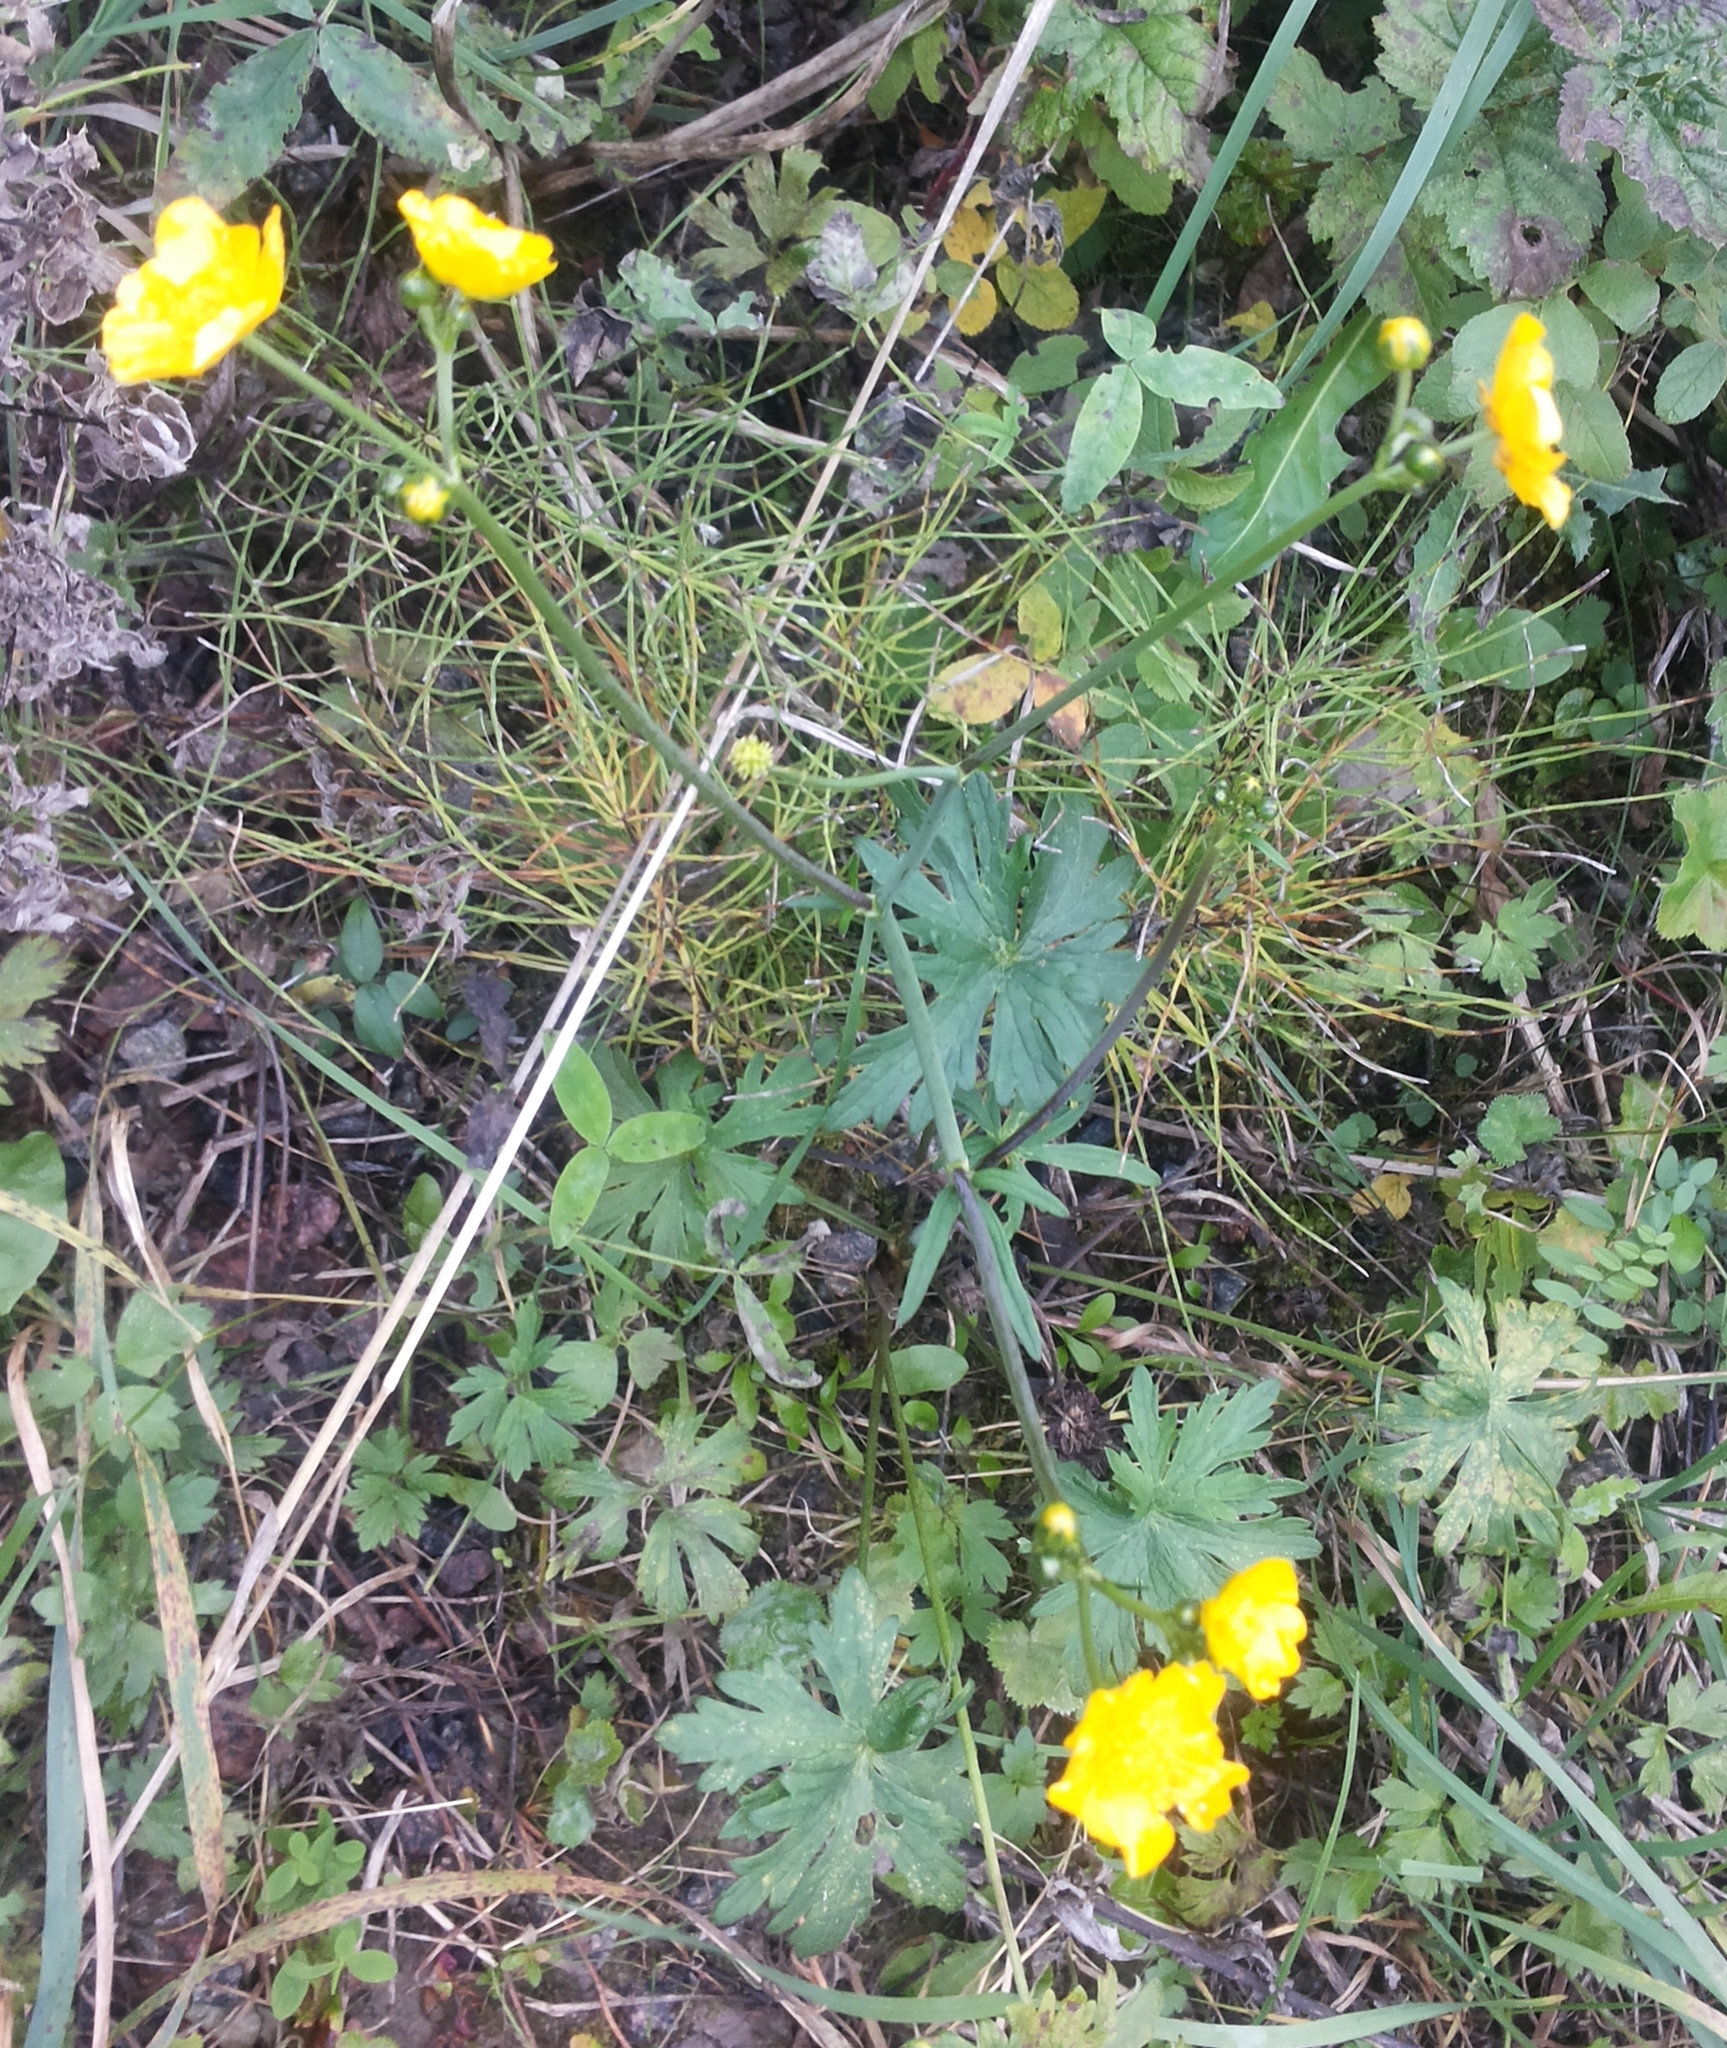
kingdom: Plantae
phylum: Tracheophyta
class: Magnoliopsida
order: Ranunculales
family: Ranunculaceae
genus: Ranunculus
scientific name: Ranunculus repens
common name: Creeping buttercup
